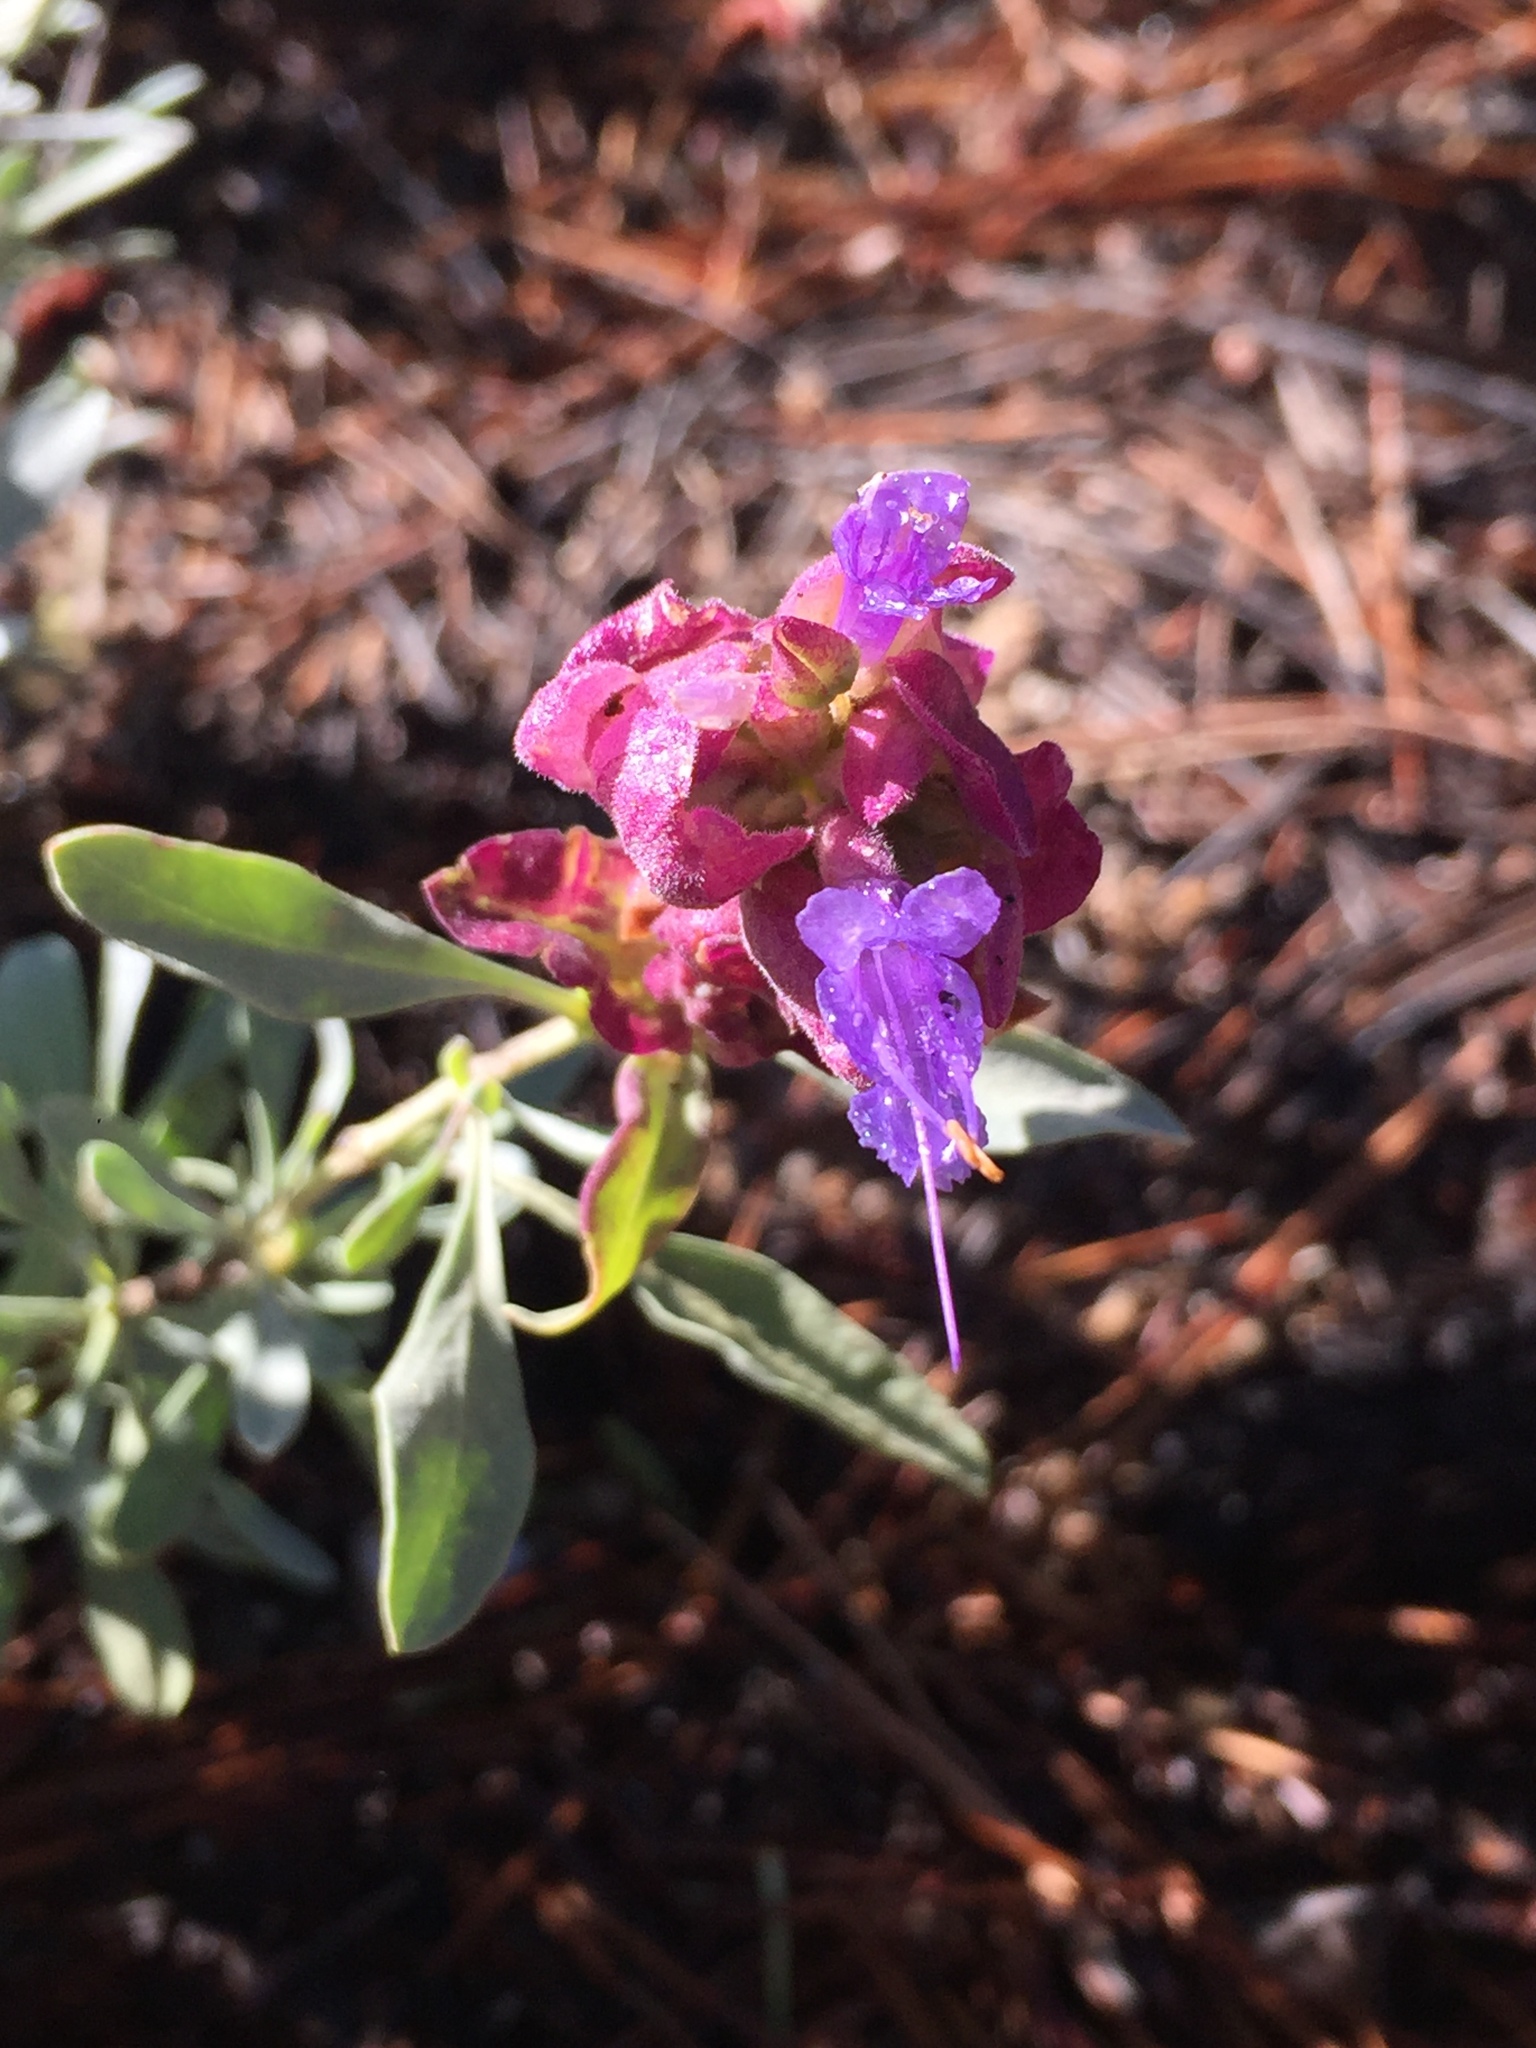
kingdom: Plantae
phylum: Tracheophyta
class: Magnoliopsida
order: Lamiales
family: Lamiaceae
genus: Salvia
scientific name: Salvia pachyphylla
